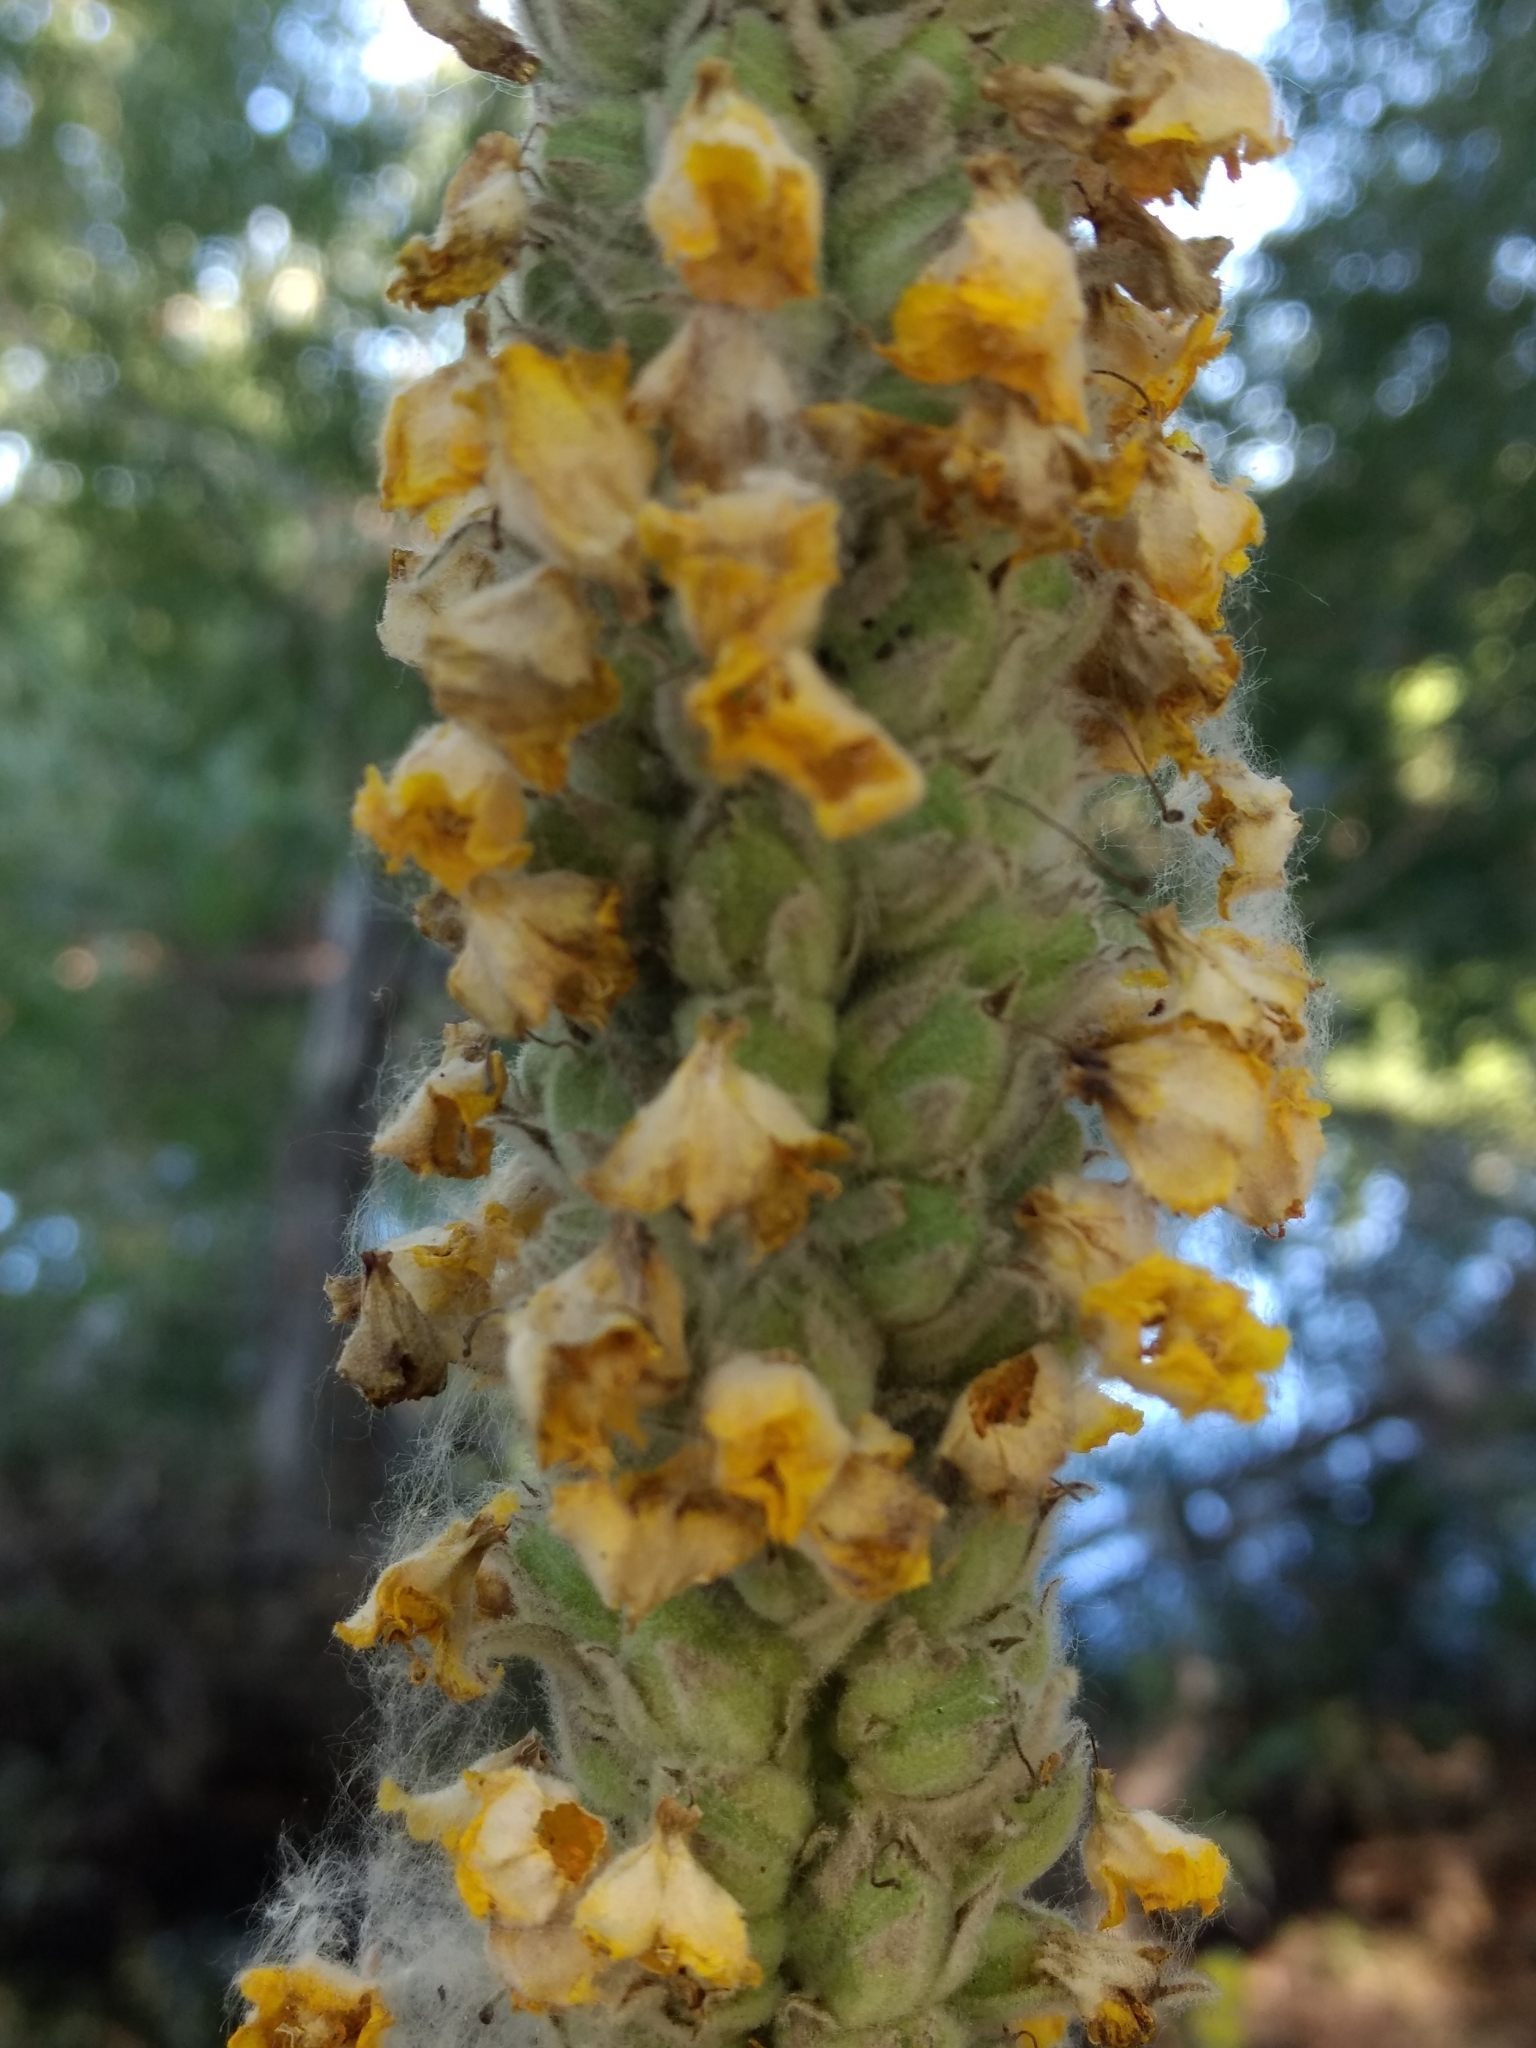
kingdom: Plantae
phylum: Tracheophyta
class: Magnoliopsida
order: Lamiales
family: Scrophulariaceae
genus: Verbascum
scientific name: Verbascum thapsus
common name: Common mullein
